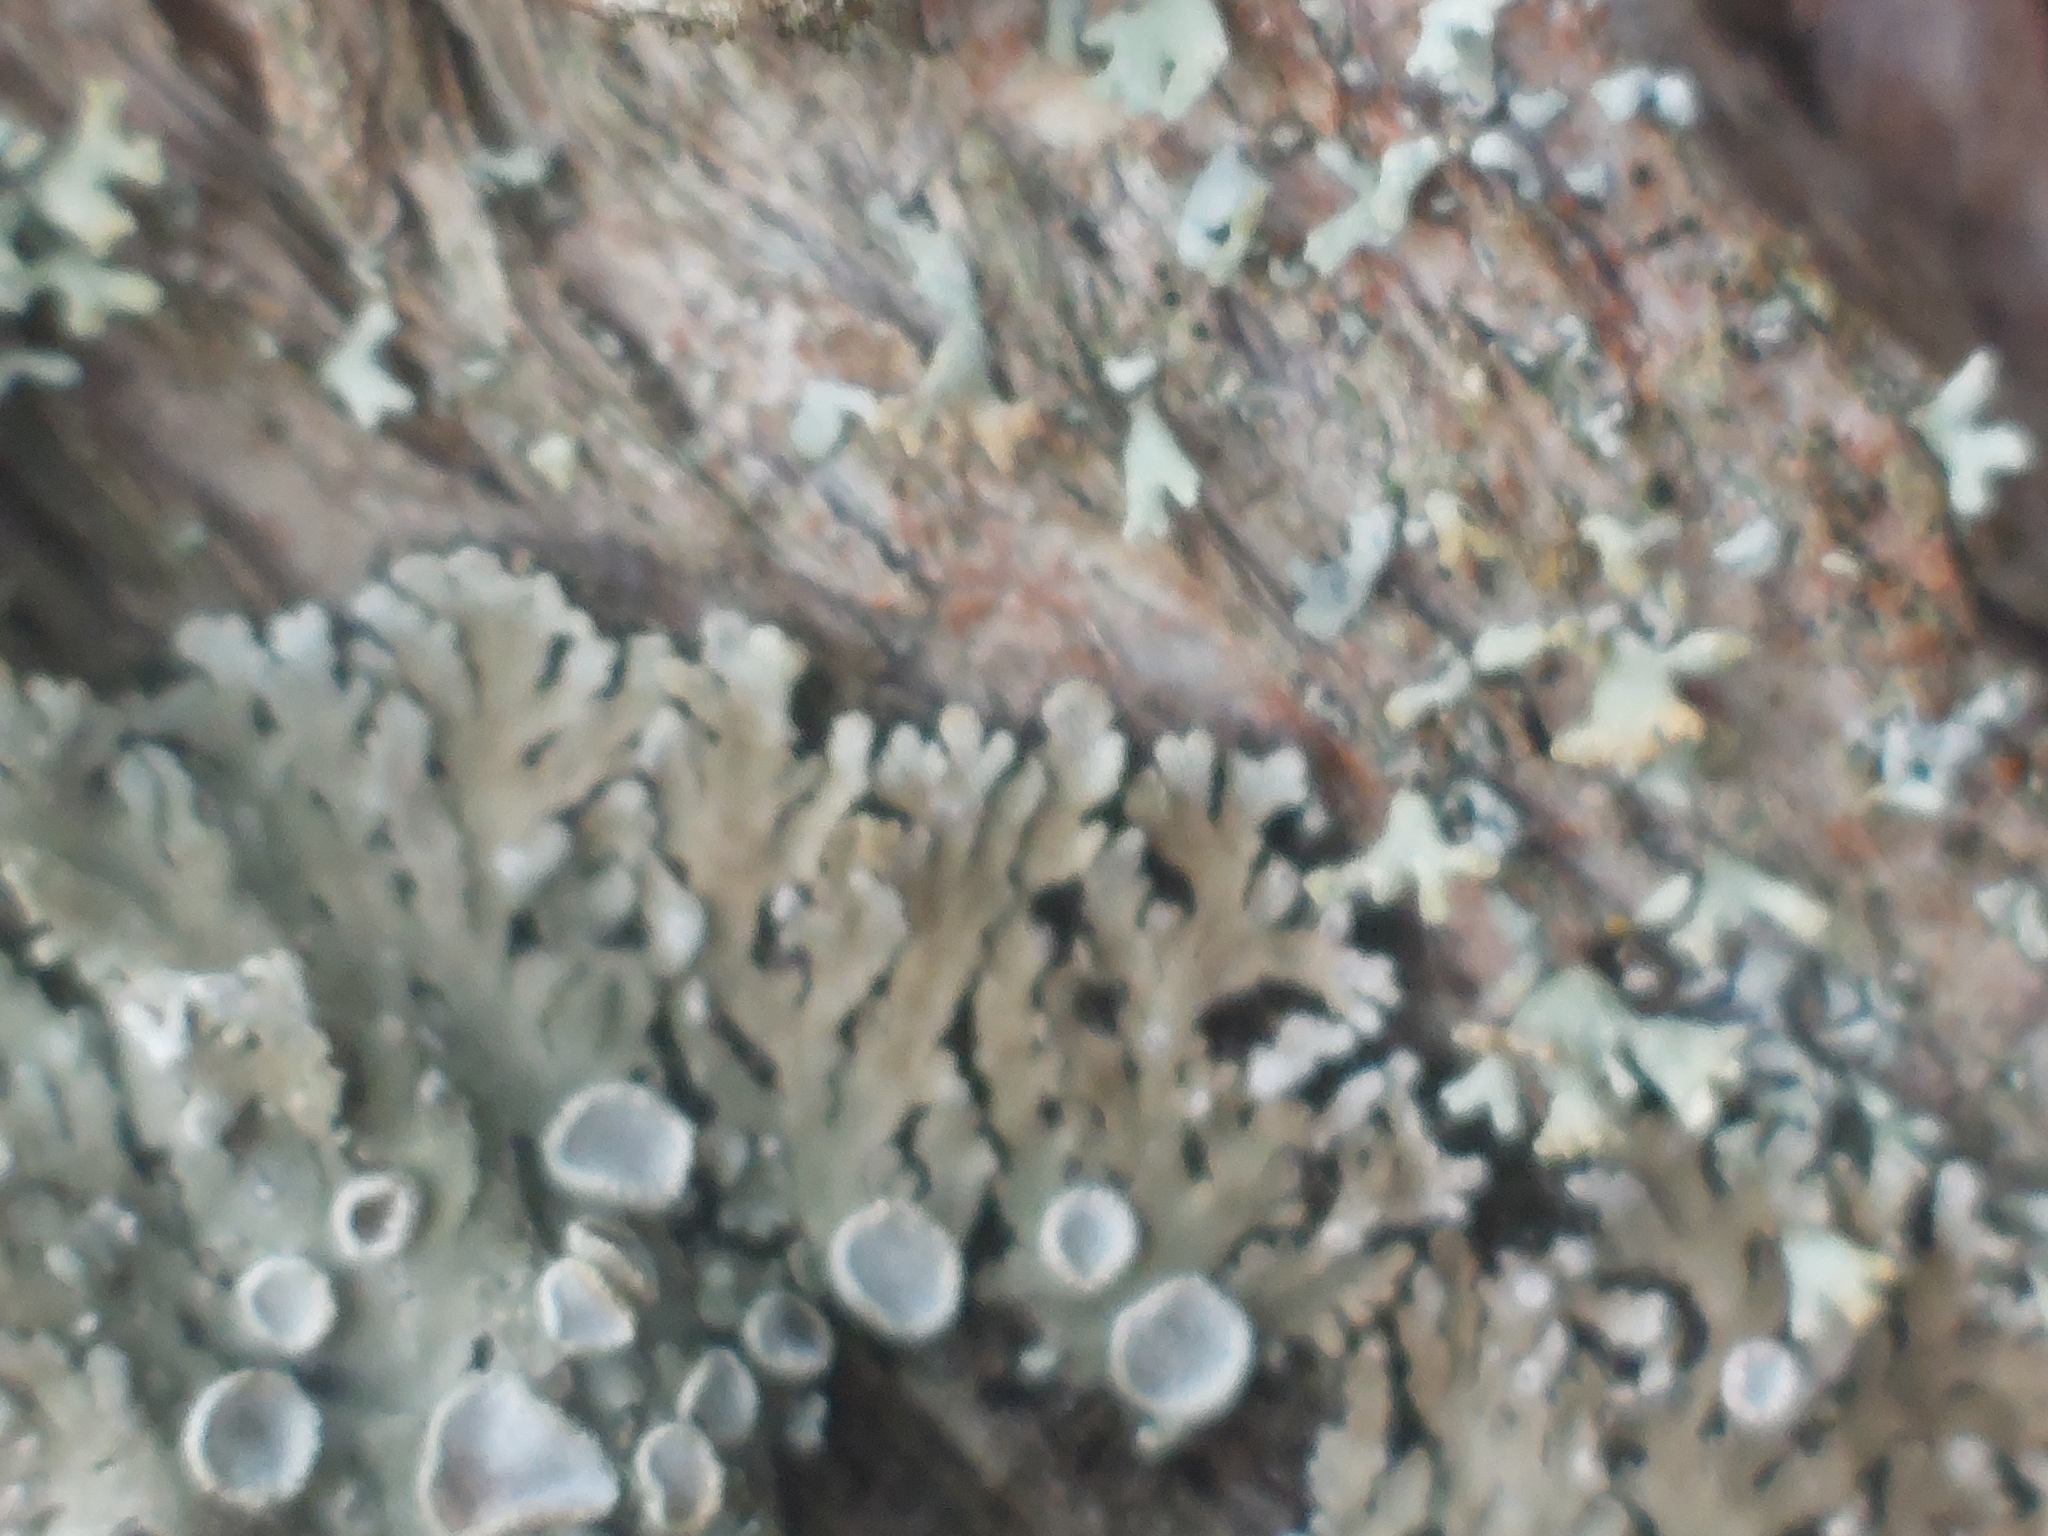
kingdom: Fungi
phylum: Ascomycota
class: Lecanoromycetes
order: Caliciales
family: Physciaceae
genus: Physconia
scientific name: Physconia distorta
